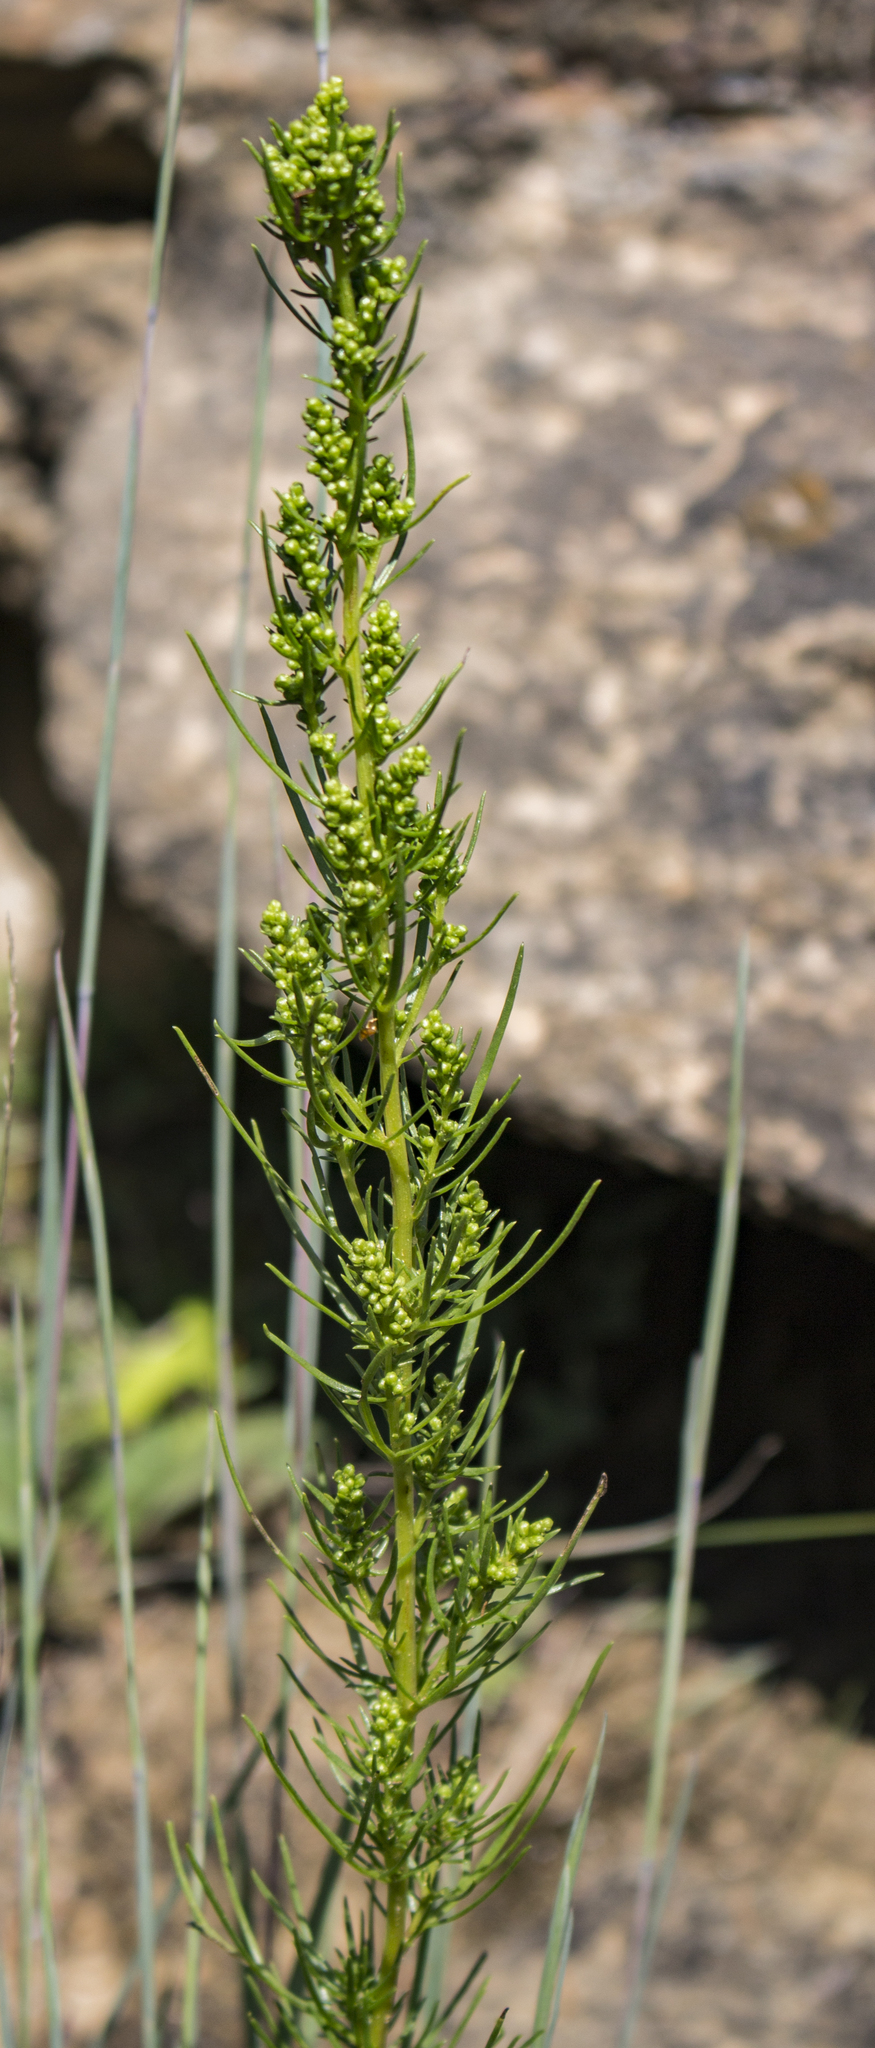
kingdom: Plantae
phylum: Tracheophyta
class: Magnoliopsida
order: Asterales
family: Asteraceae
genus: Artemisia
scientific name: Artemisia campestris
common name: Field wormwood
